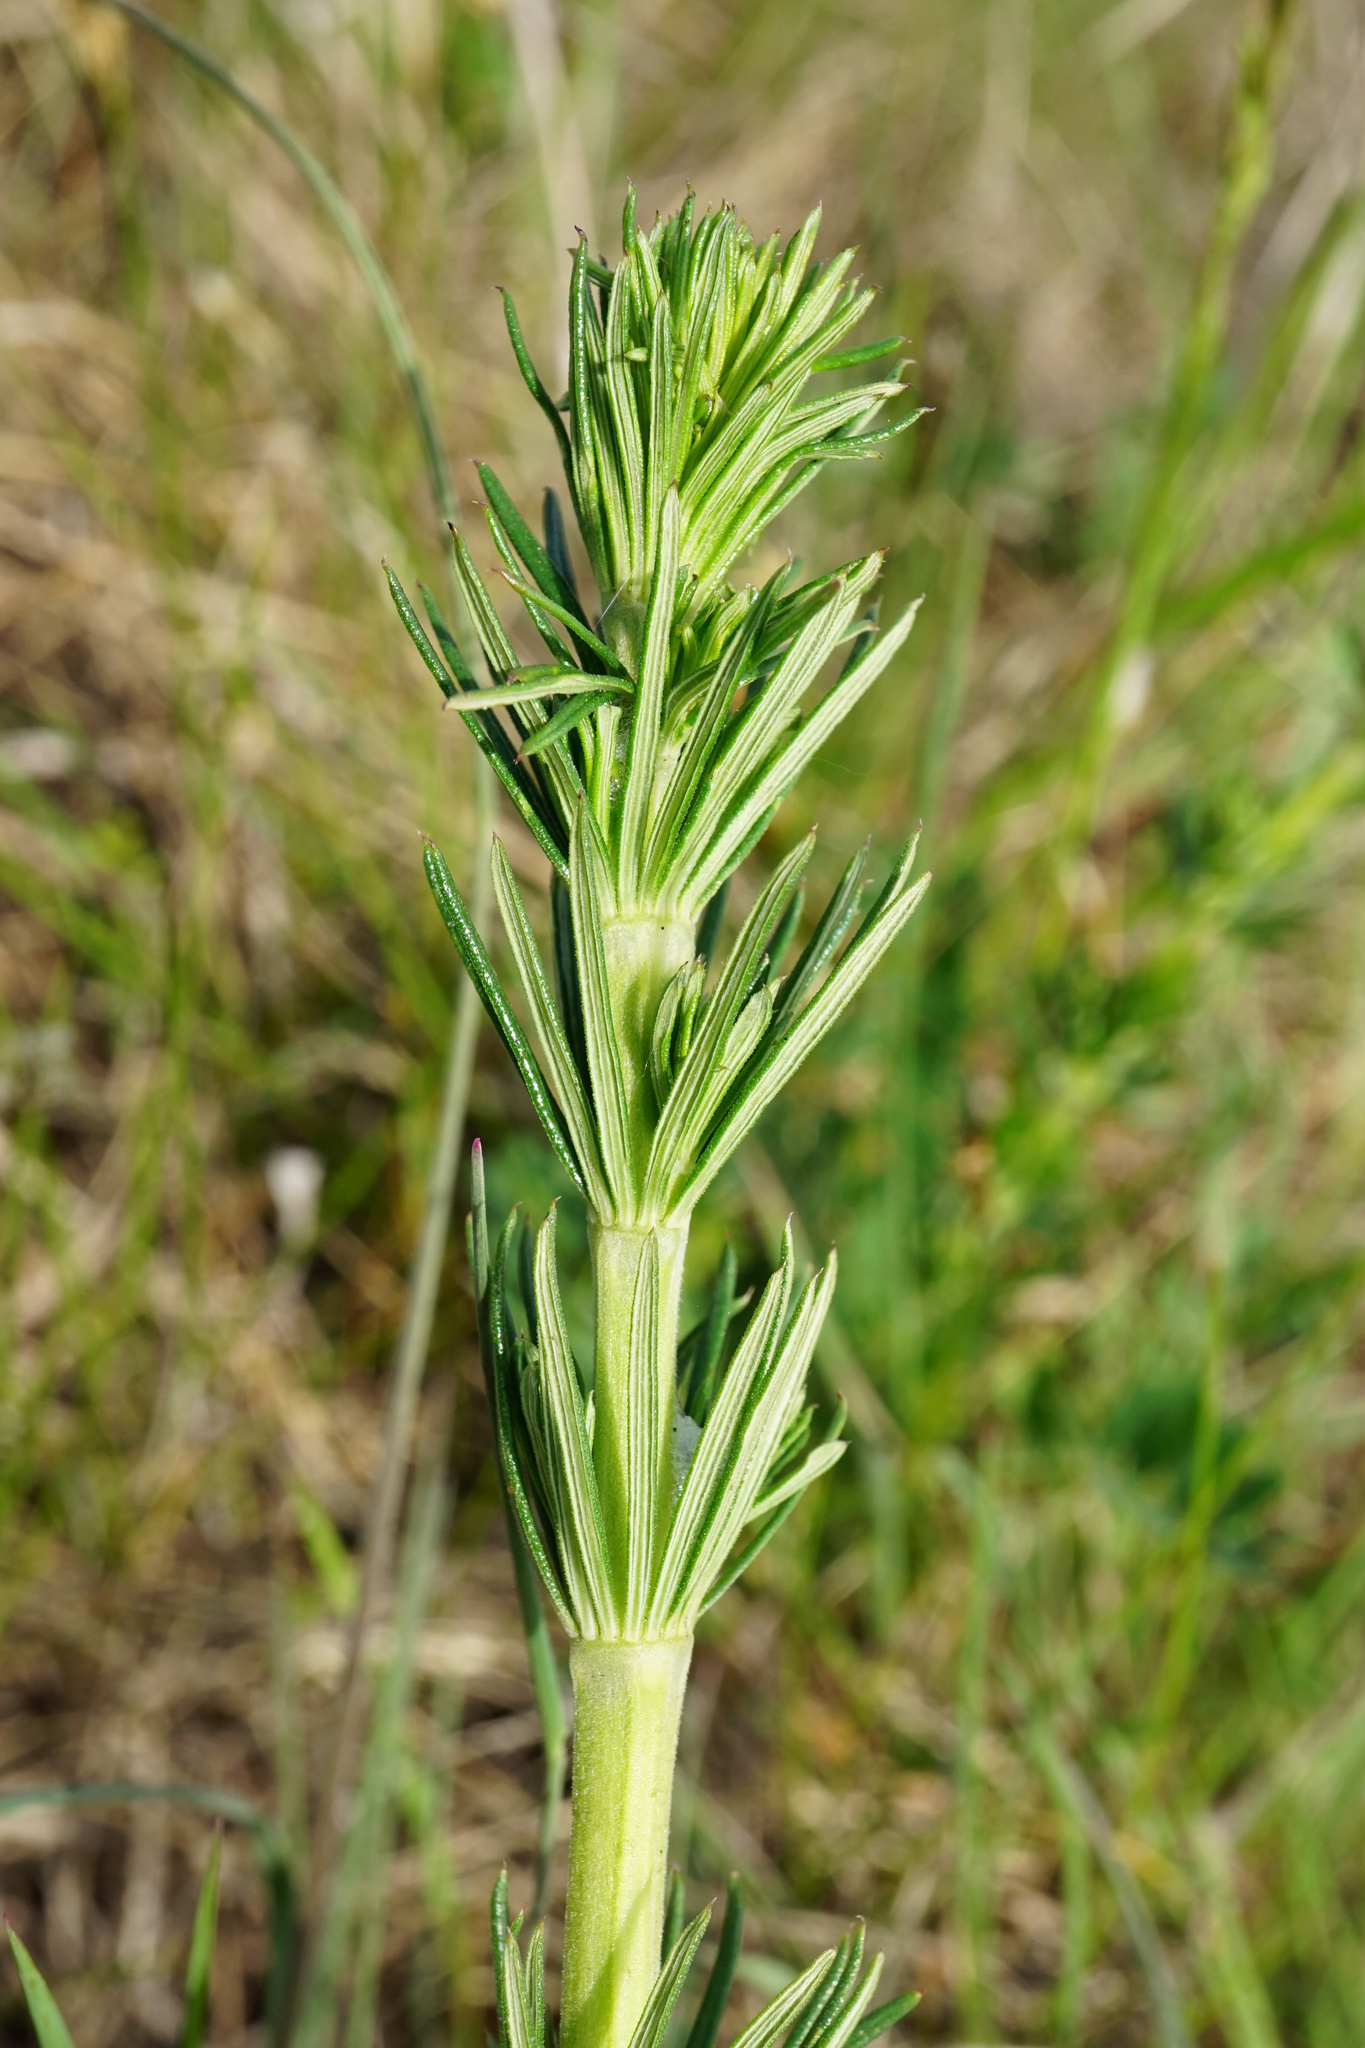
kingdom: Plantae
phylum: Tracheophyta
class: Magnoliopsida
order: Gentianales
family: Rubiaceae
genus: Galium
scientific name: Galium verum
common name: Lady's bedstraw
